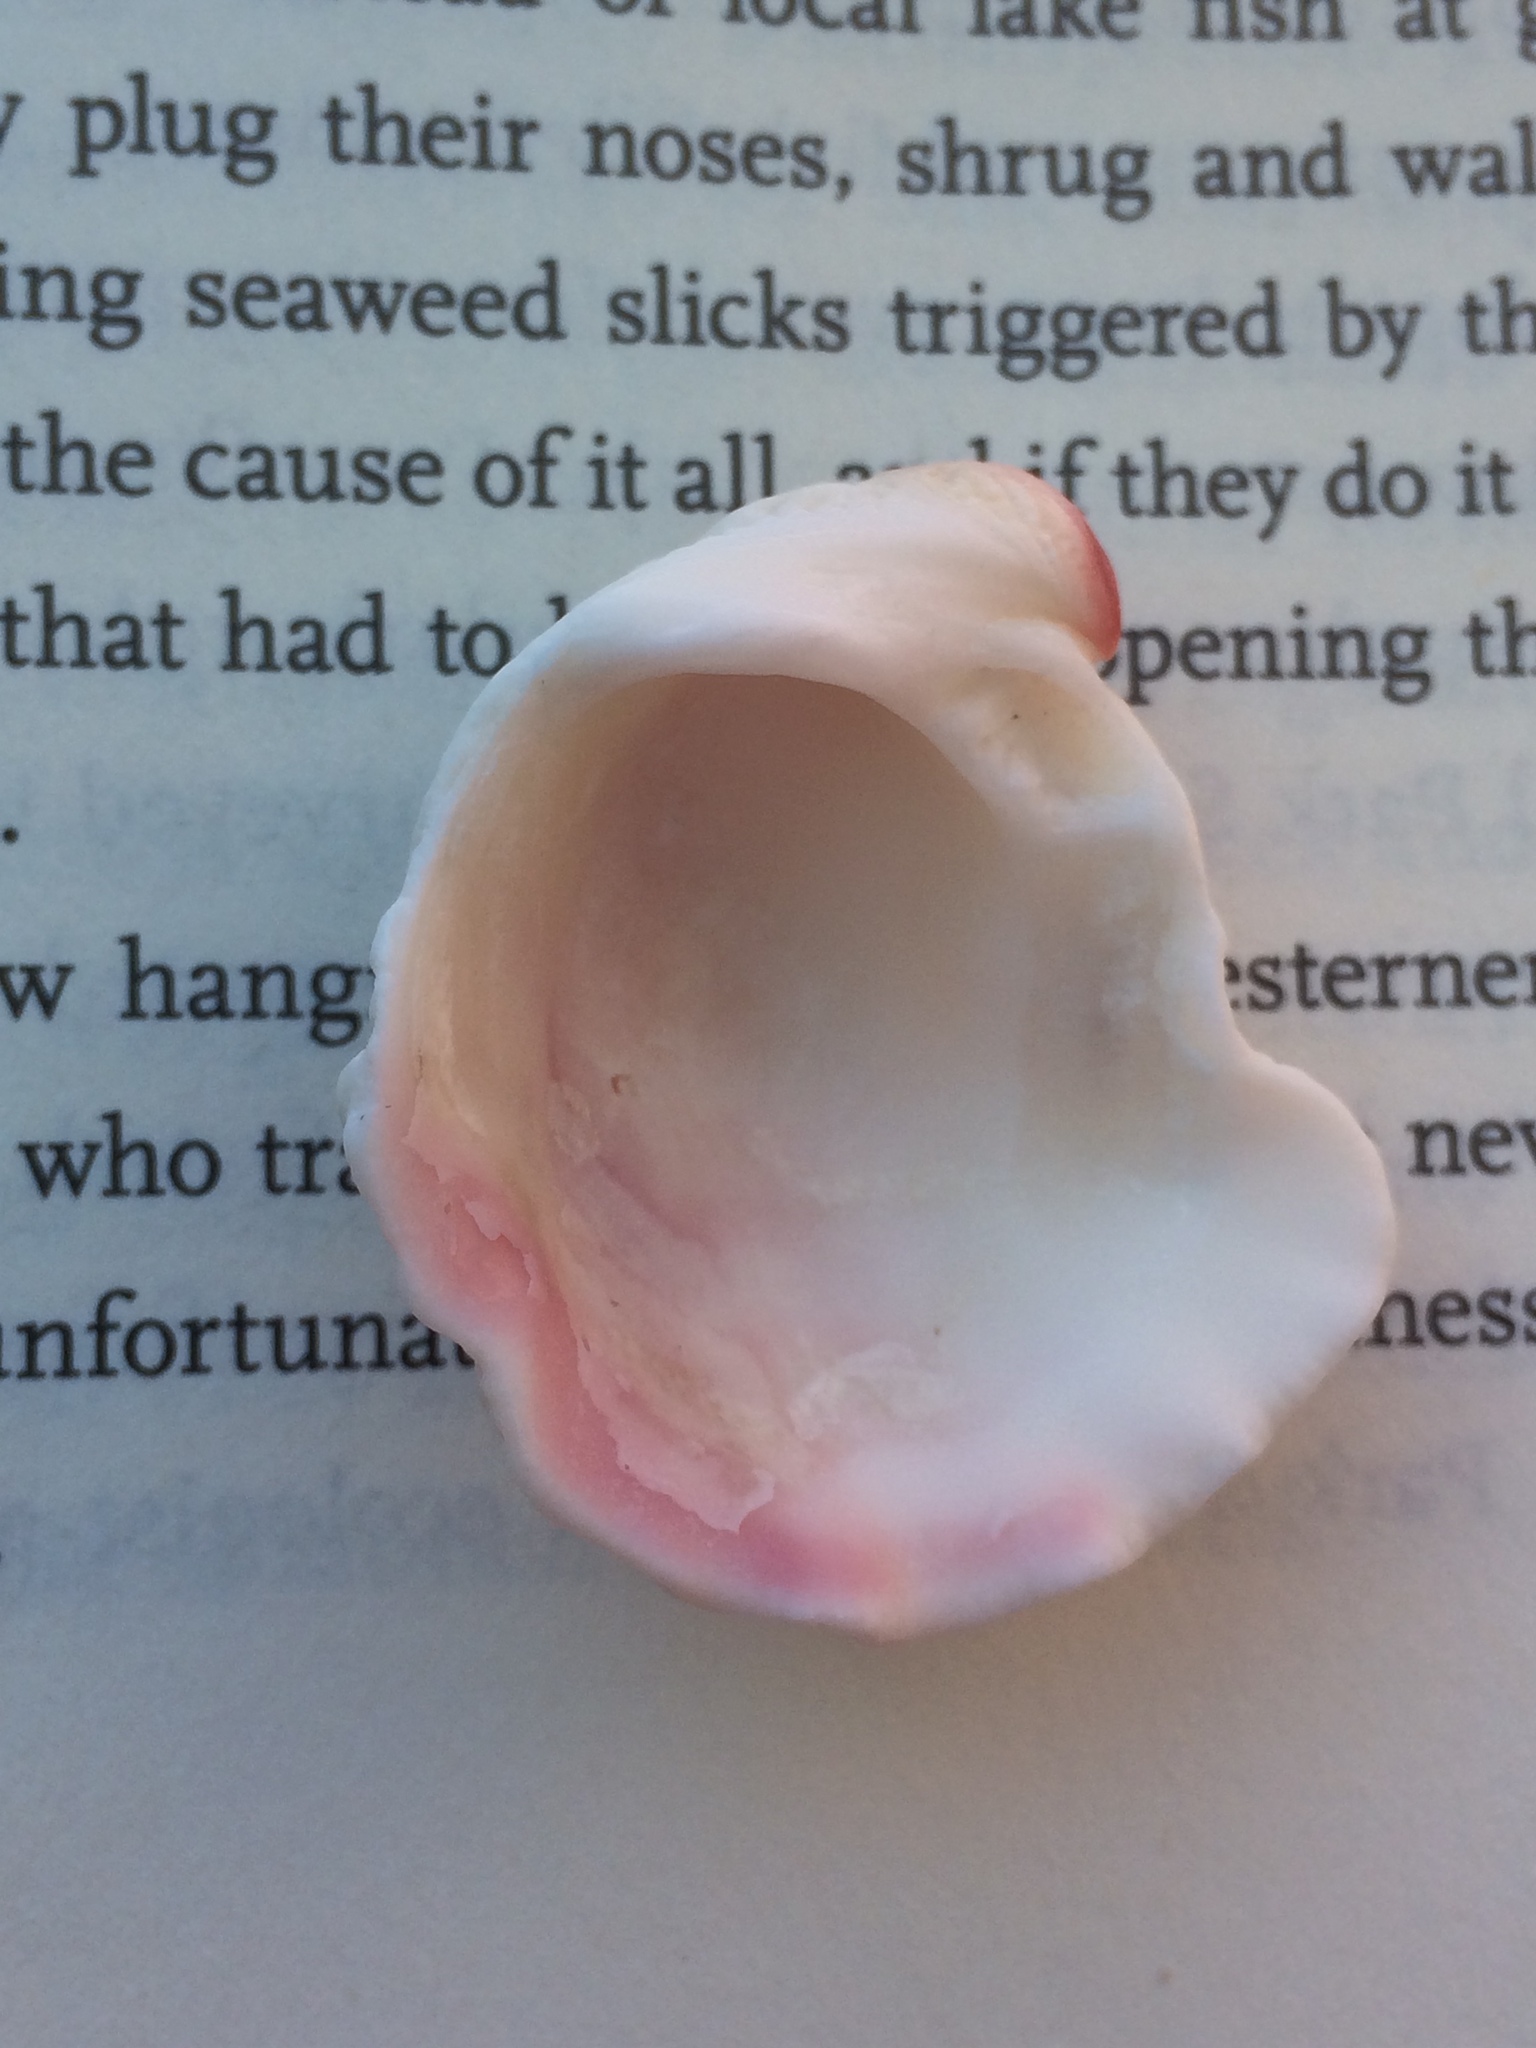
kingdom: Animalia
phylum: Mollusca
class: Bivalvia
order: Venerida
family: Chamidae
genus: Arcinella
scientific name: Arcinella cornuta
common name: Florida spiny jewel box
